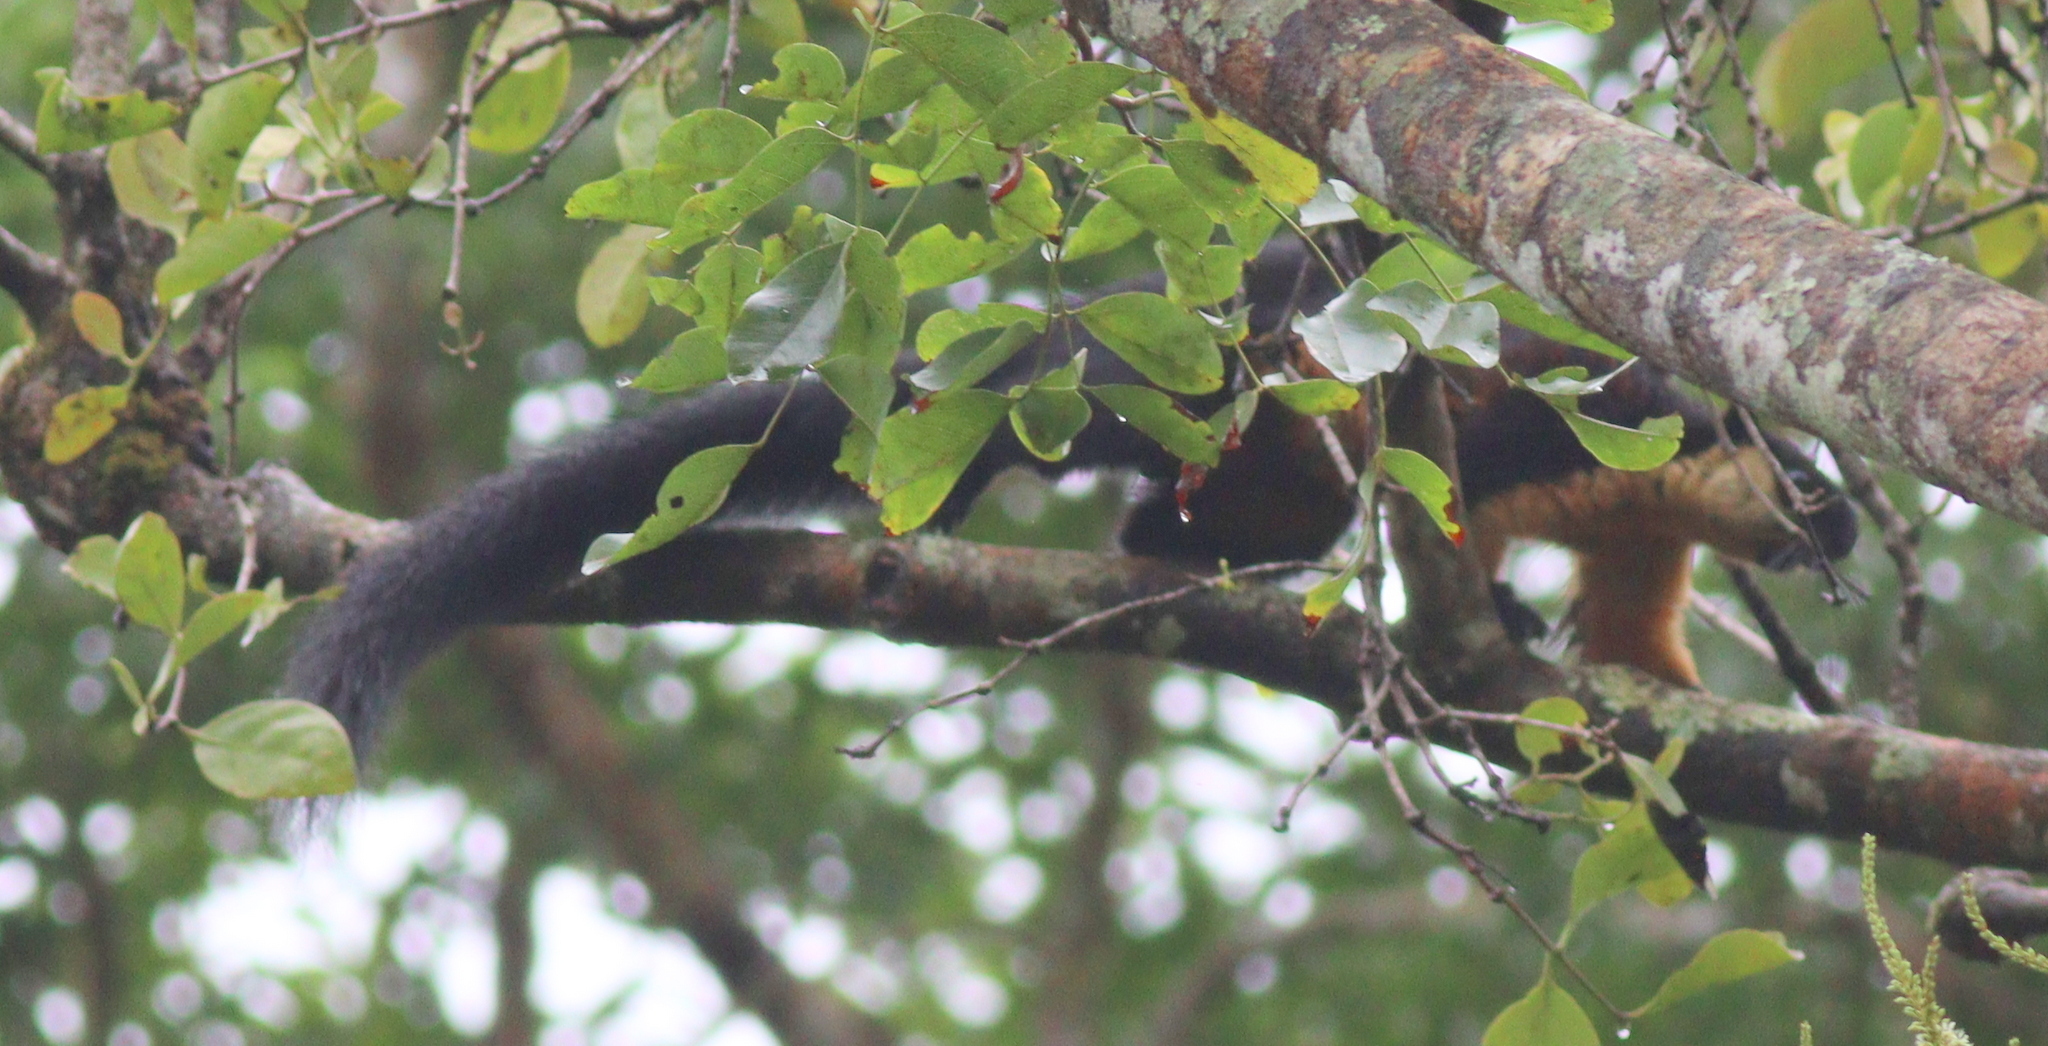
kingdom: Animalia
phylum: Chordata
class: Mammalia
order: Rodentia
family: Sciuridae
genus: Ratufa
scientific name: Ratufa bicolor
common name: Black giant squirrel
